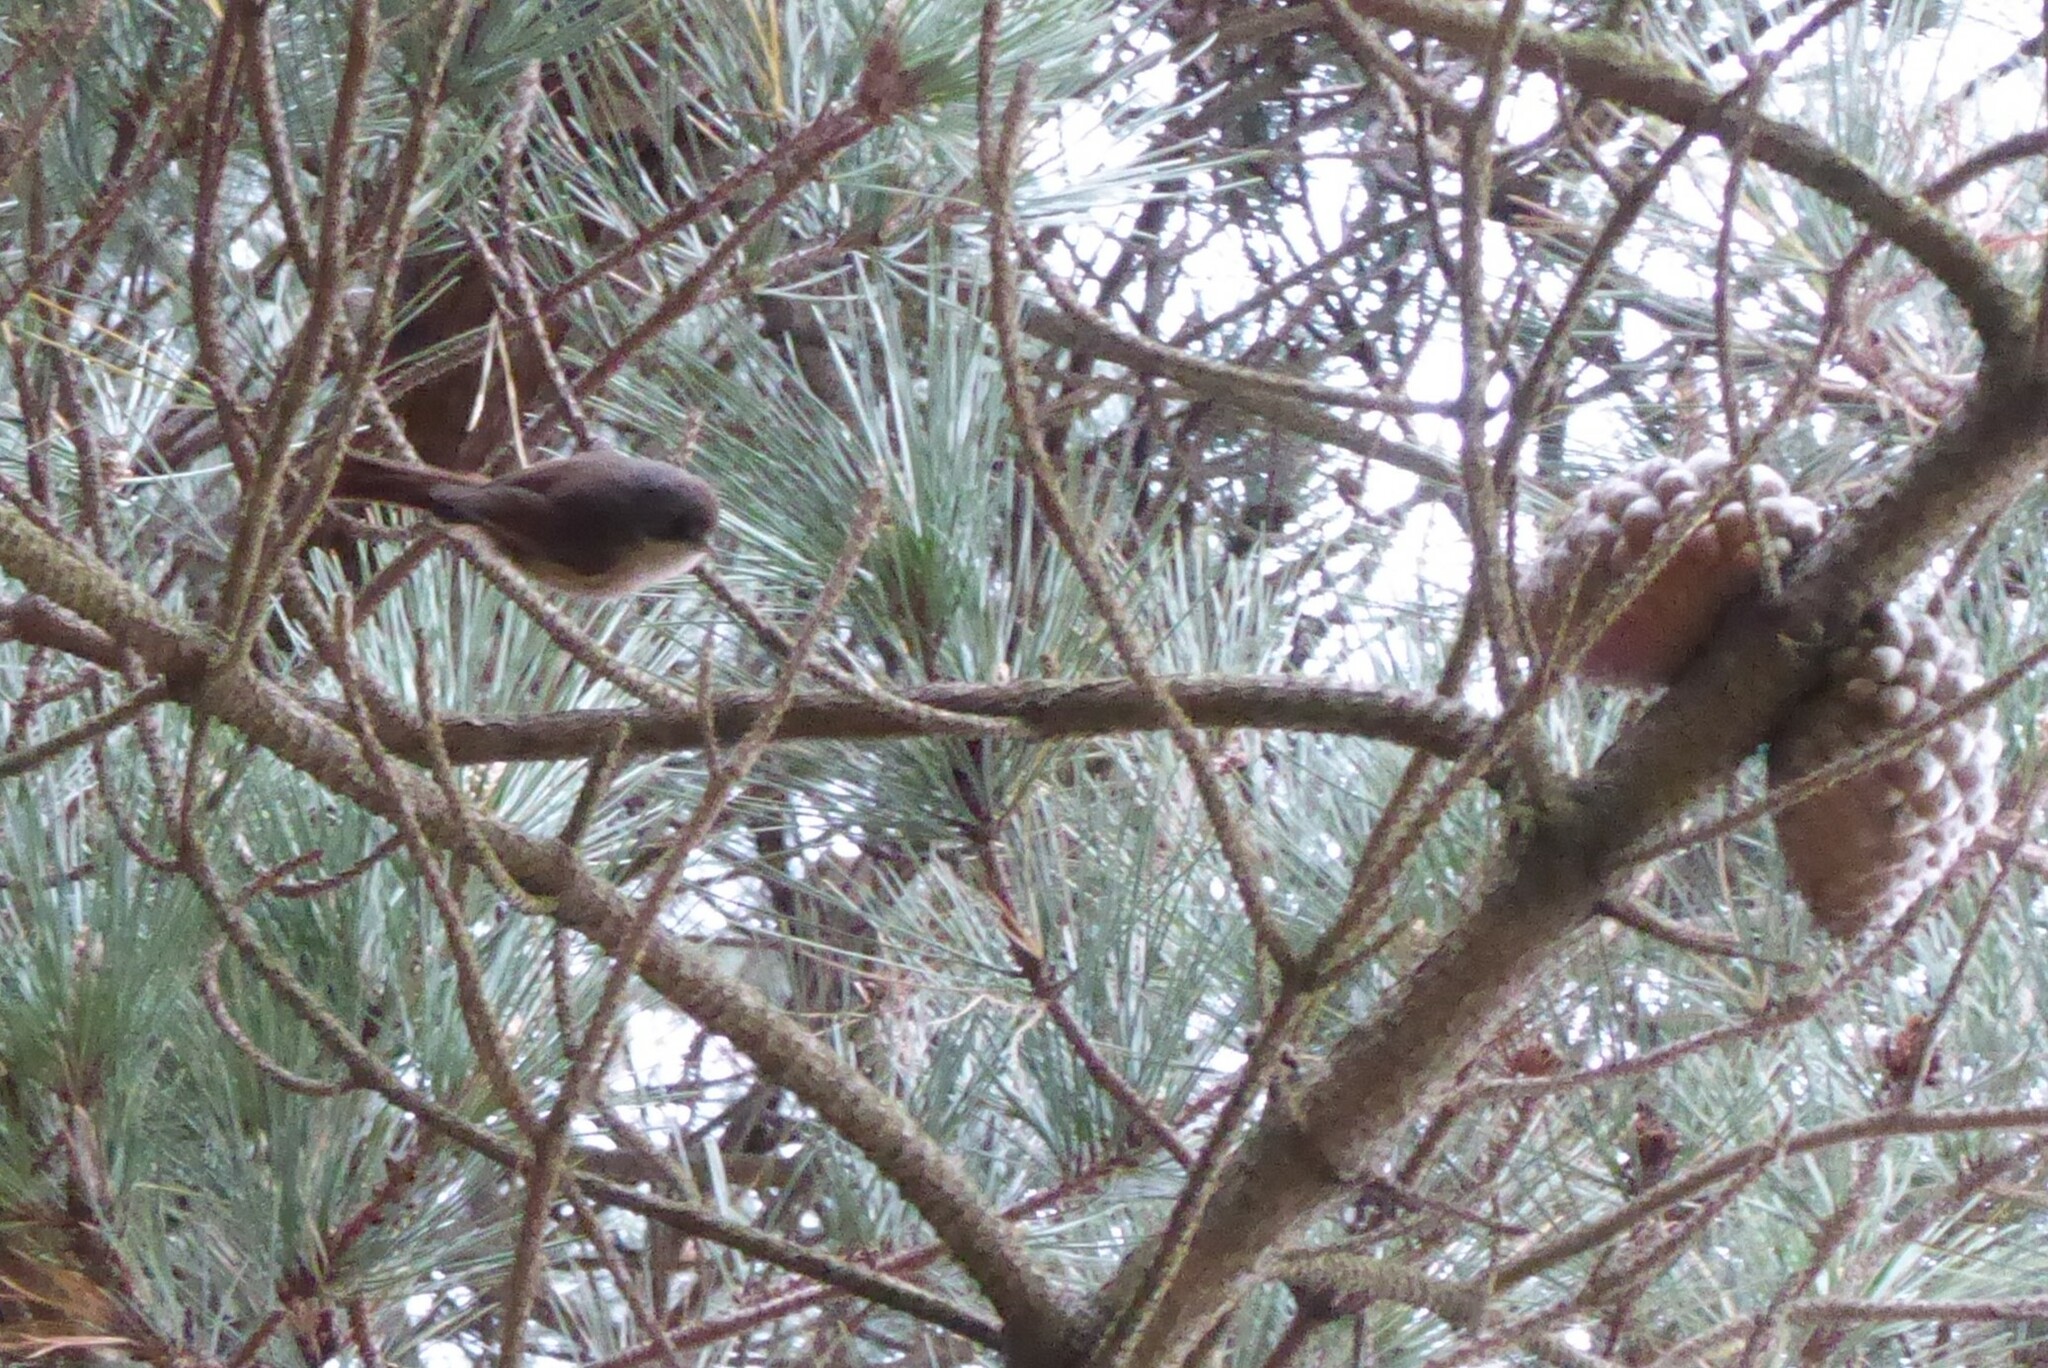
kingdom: Animalia
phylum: Chordata
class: Aves
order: Passeriformes
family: Acanthizidae
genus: Finschia
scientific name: Finschia novaeseelandiae
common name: Pipipi
